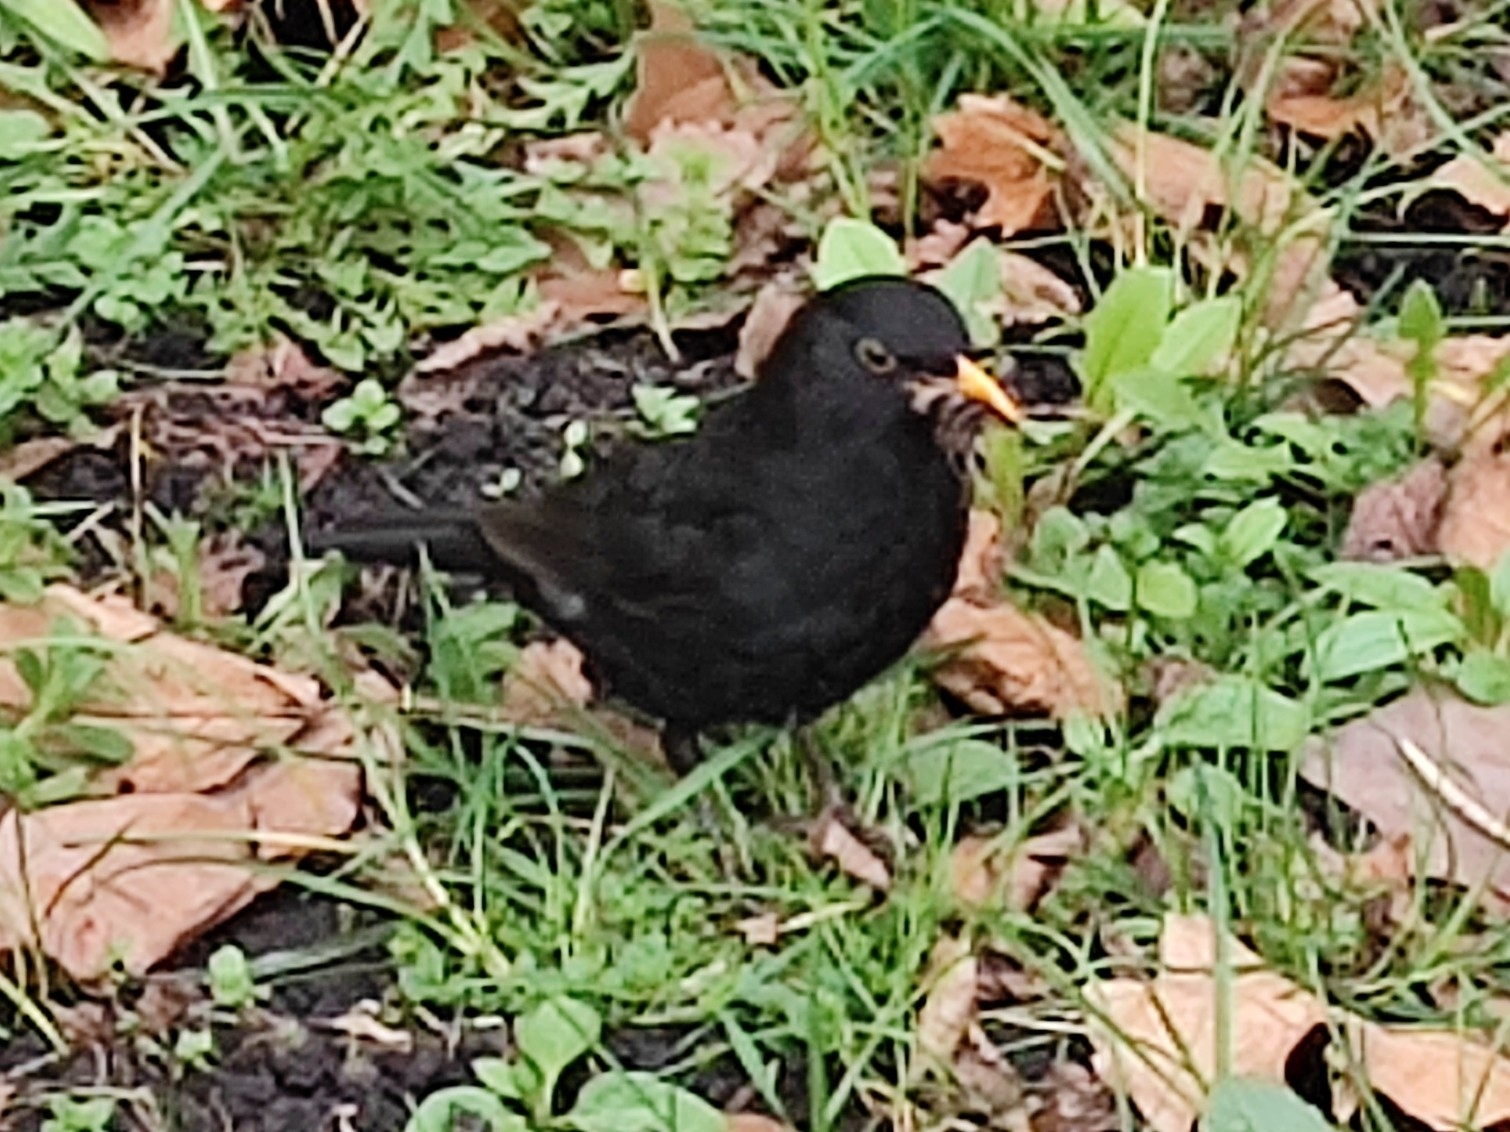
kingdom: Animalia
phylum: Chordata
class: Aves
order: Passeriformes
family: Turdidae
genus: Turdus
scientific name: Turdus merula
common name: Common blackbird
